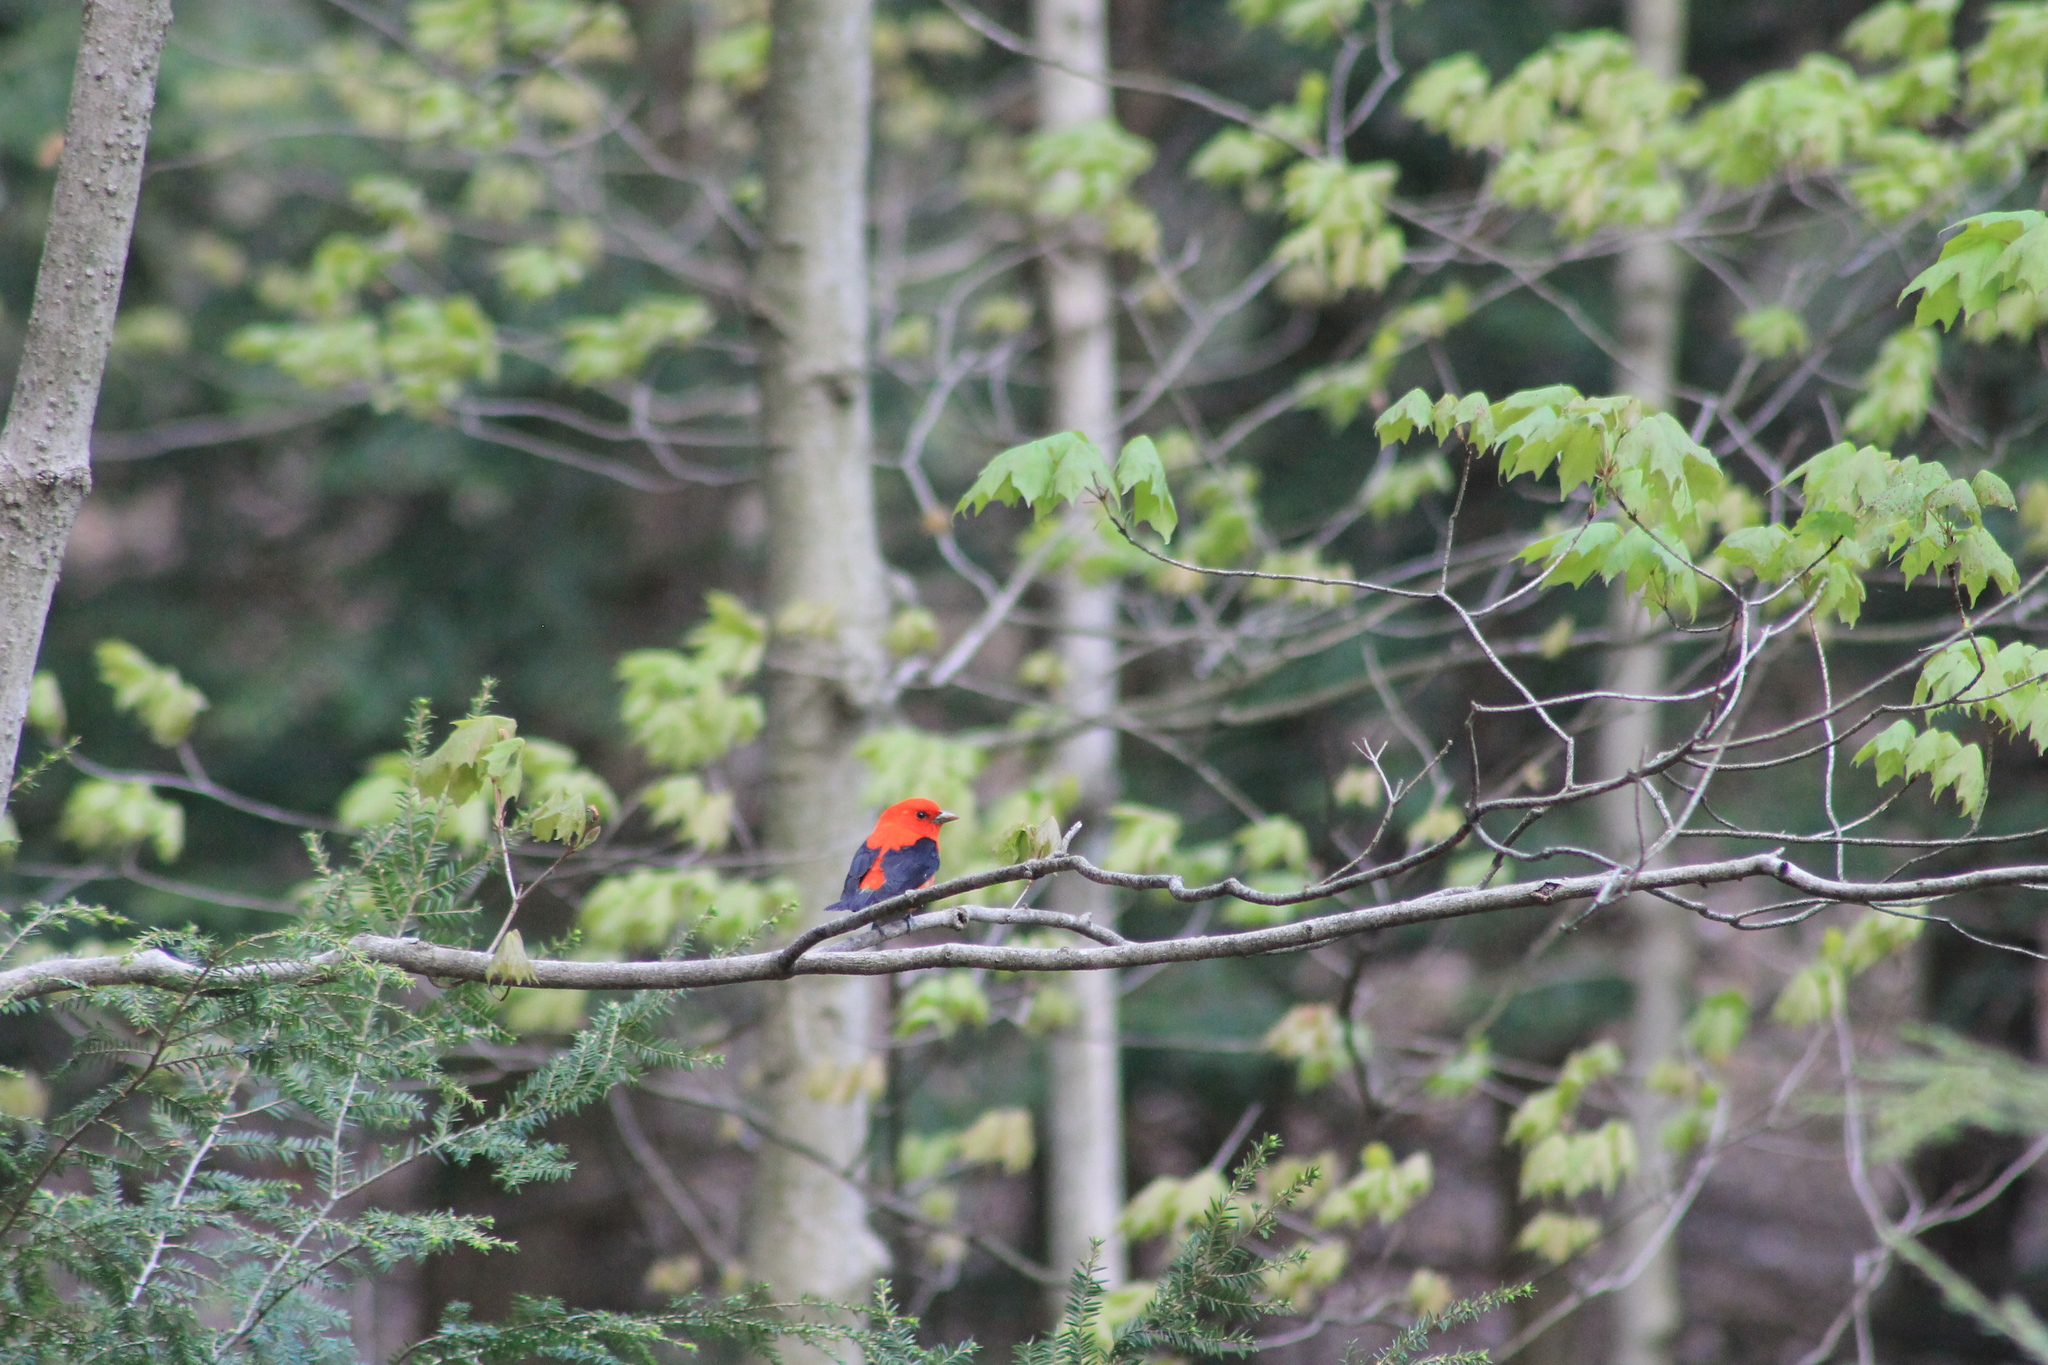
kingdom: Animalia
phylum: Chordata
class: Aves
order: Passeriformes
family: Cardinalidae
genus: Piranga
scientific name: Piranga olivacea
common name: Scarlet tanager
